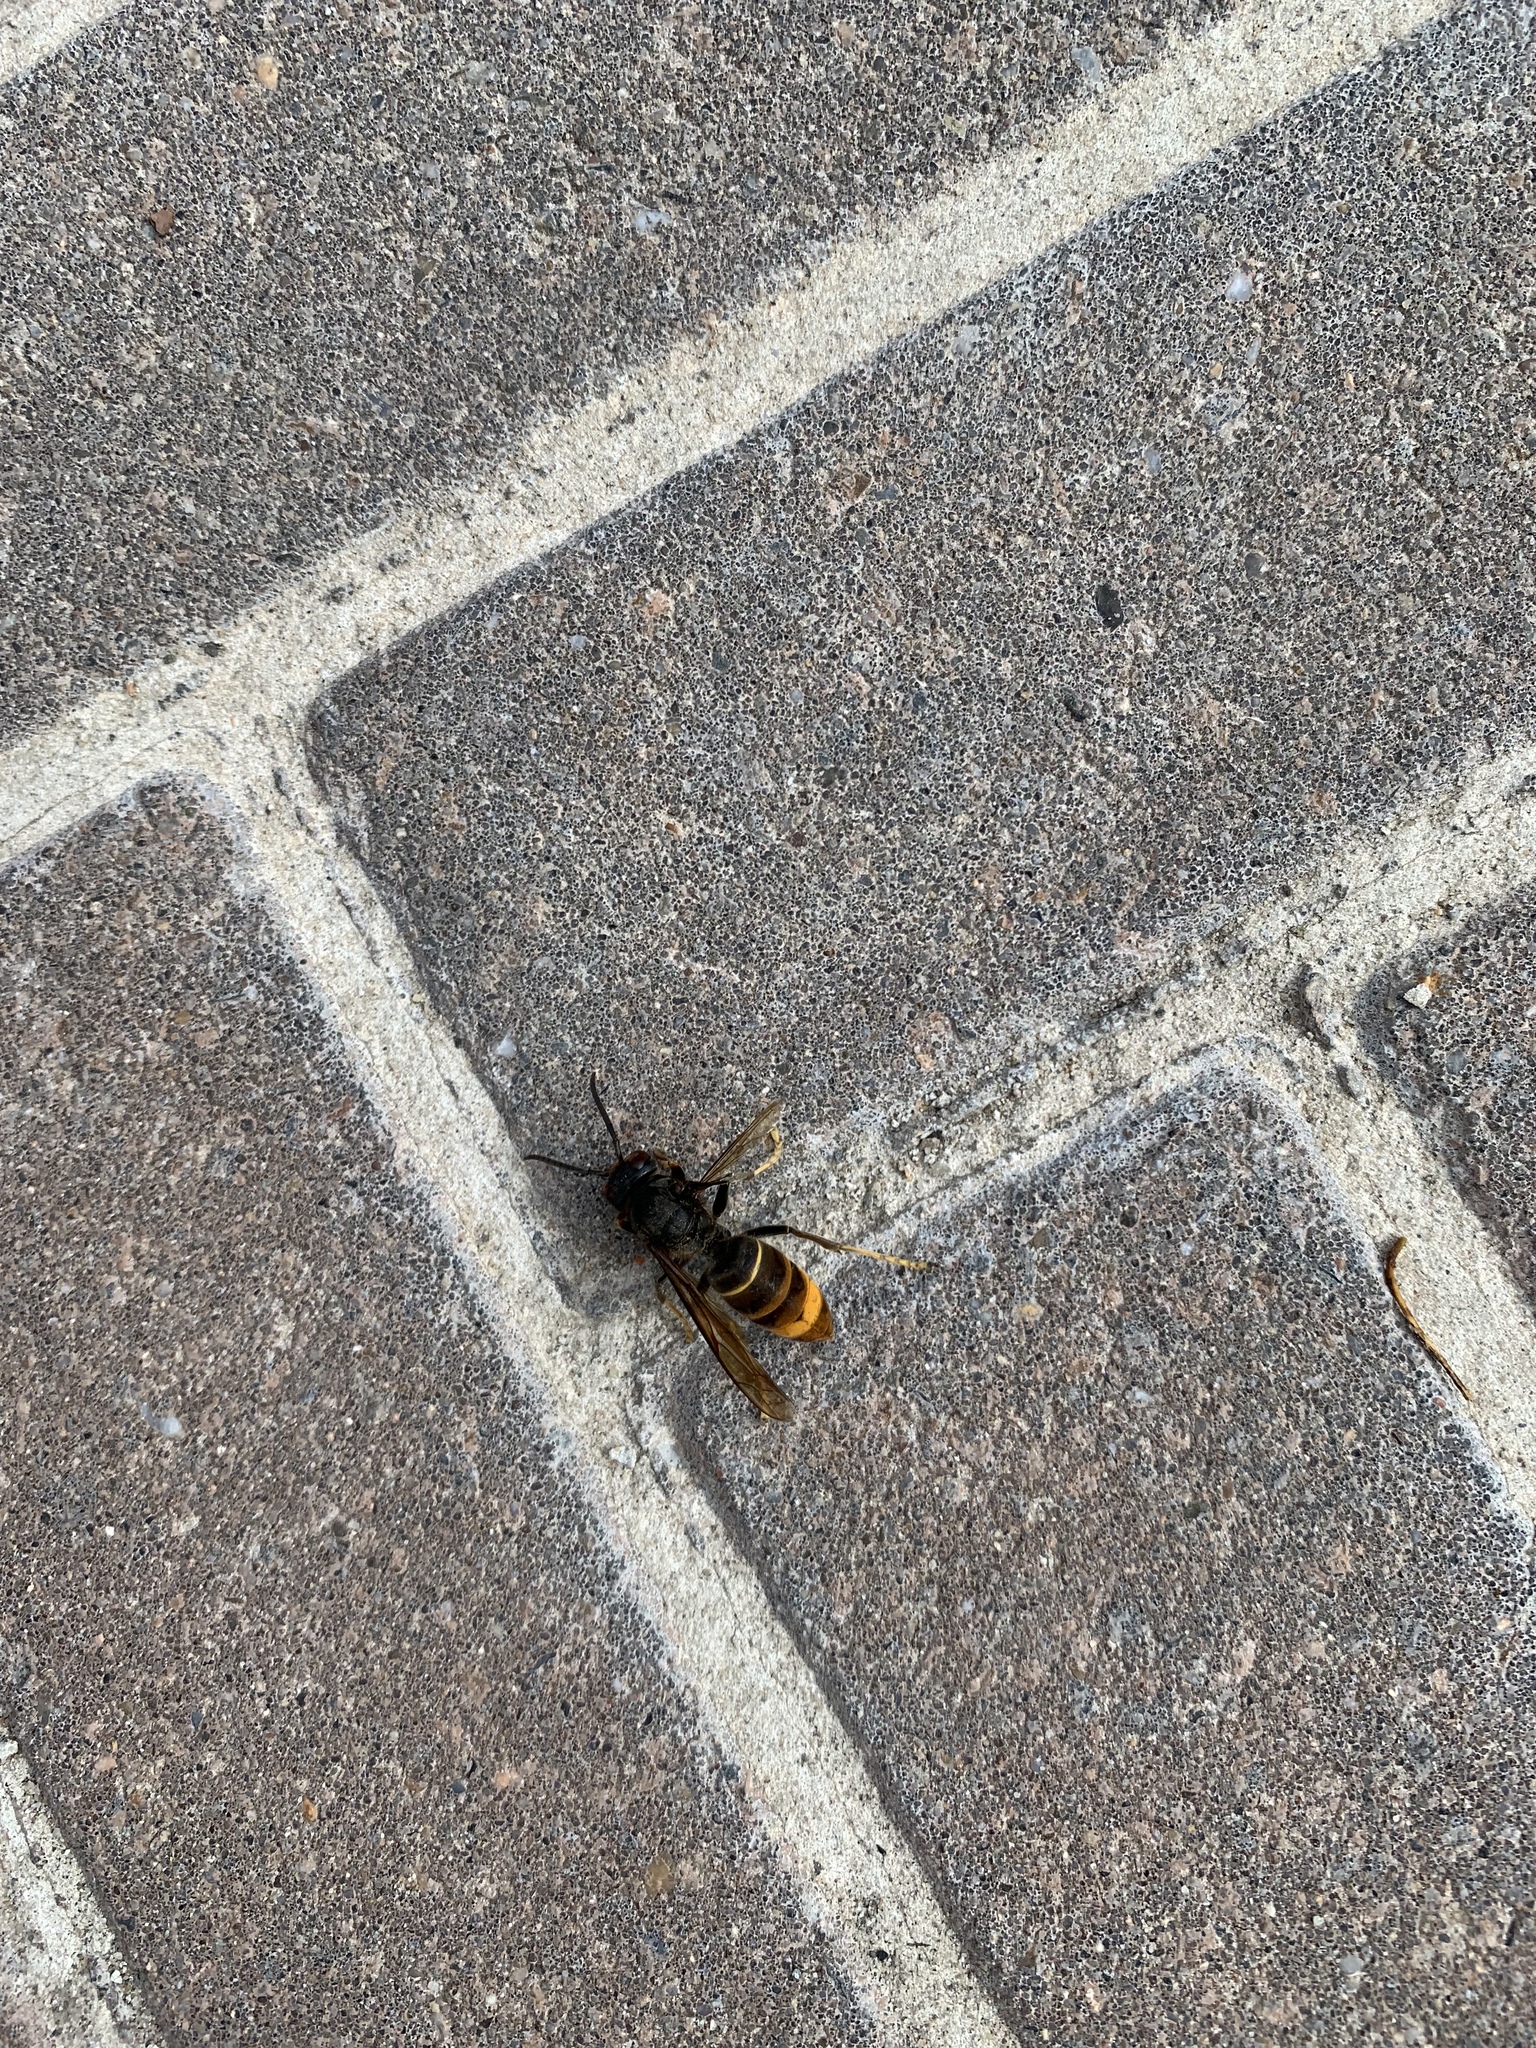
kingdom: Animalia
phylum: Arthropoda
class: Insecta
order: Hymenoptera
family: Vespidae
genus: Vespa
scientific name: Vespa velutina
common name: Asian hornet
